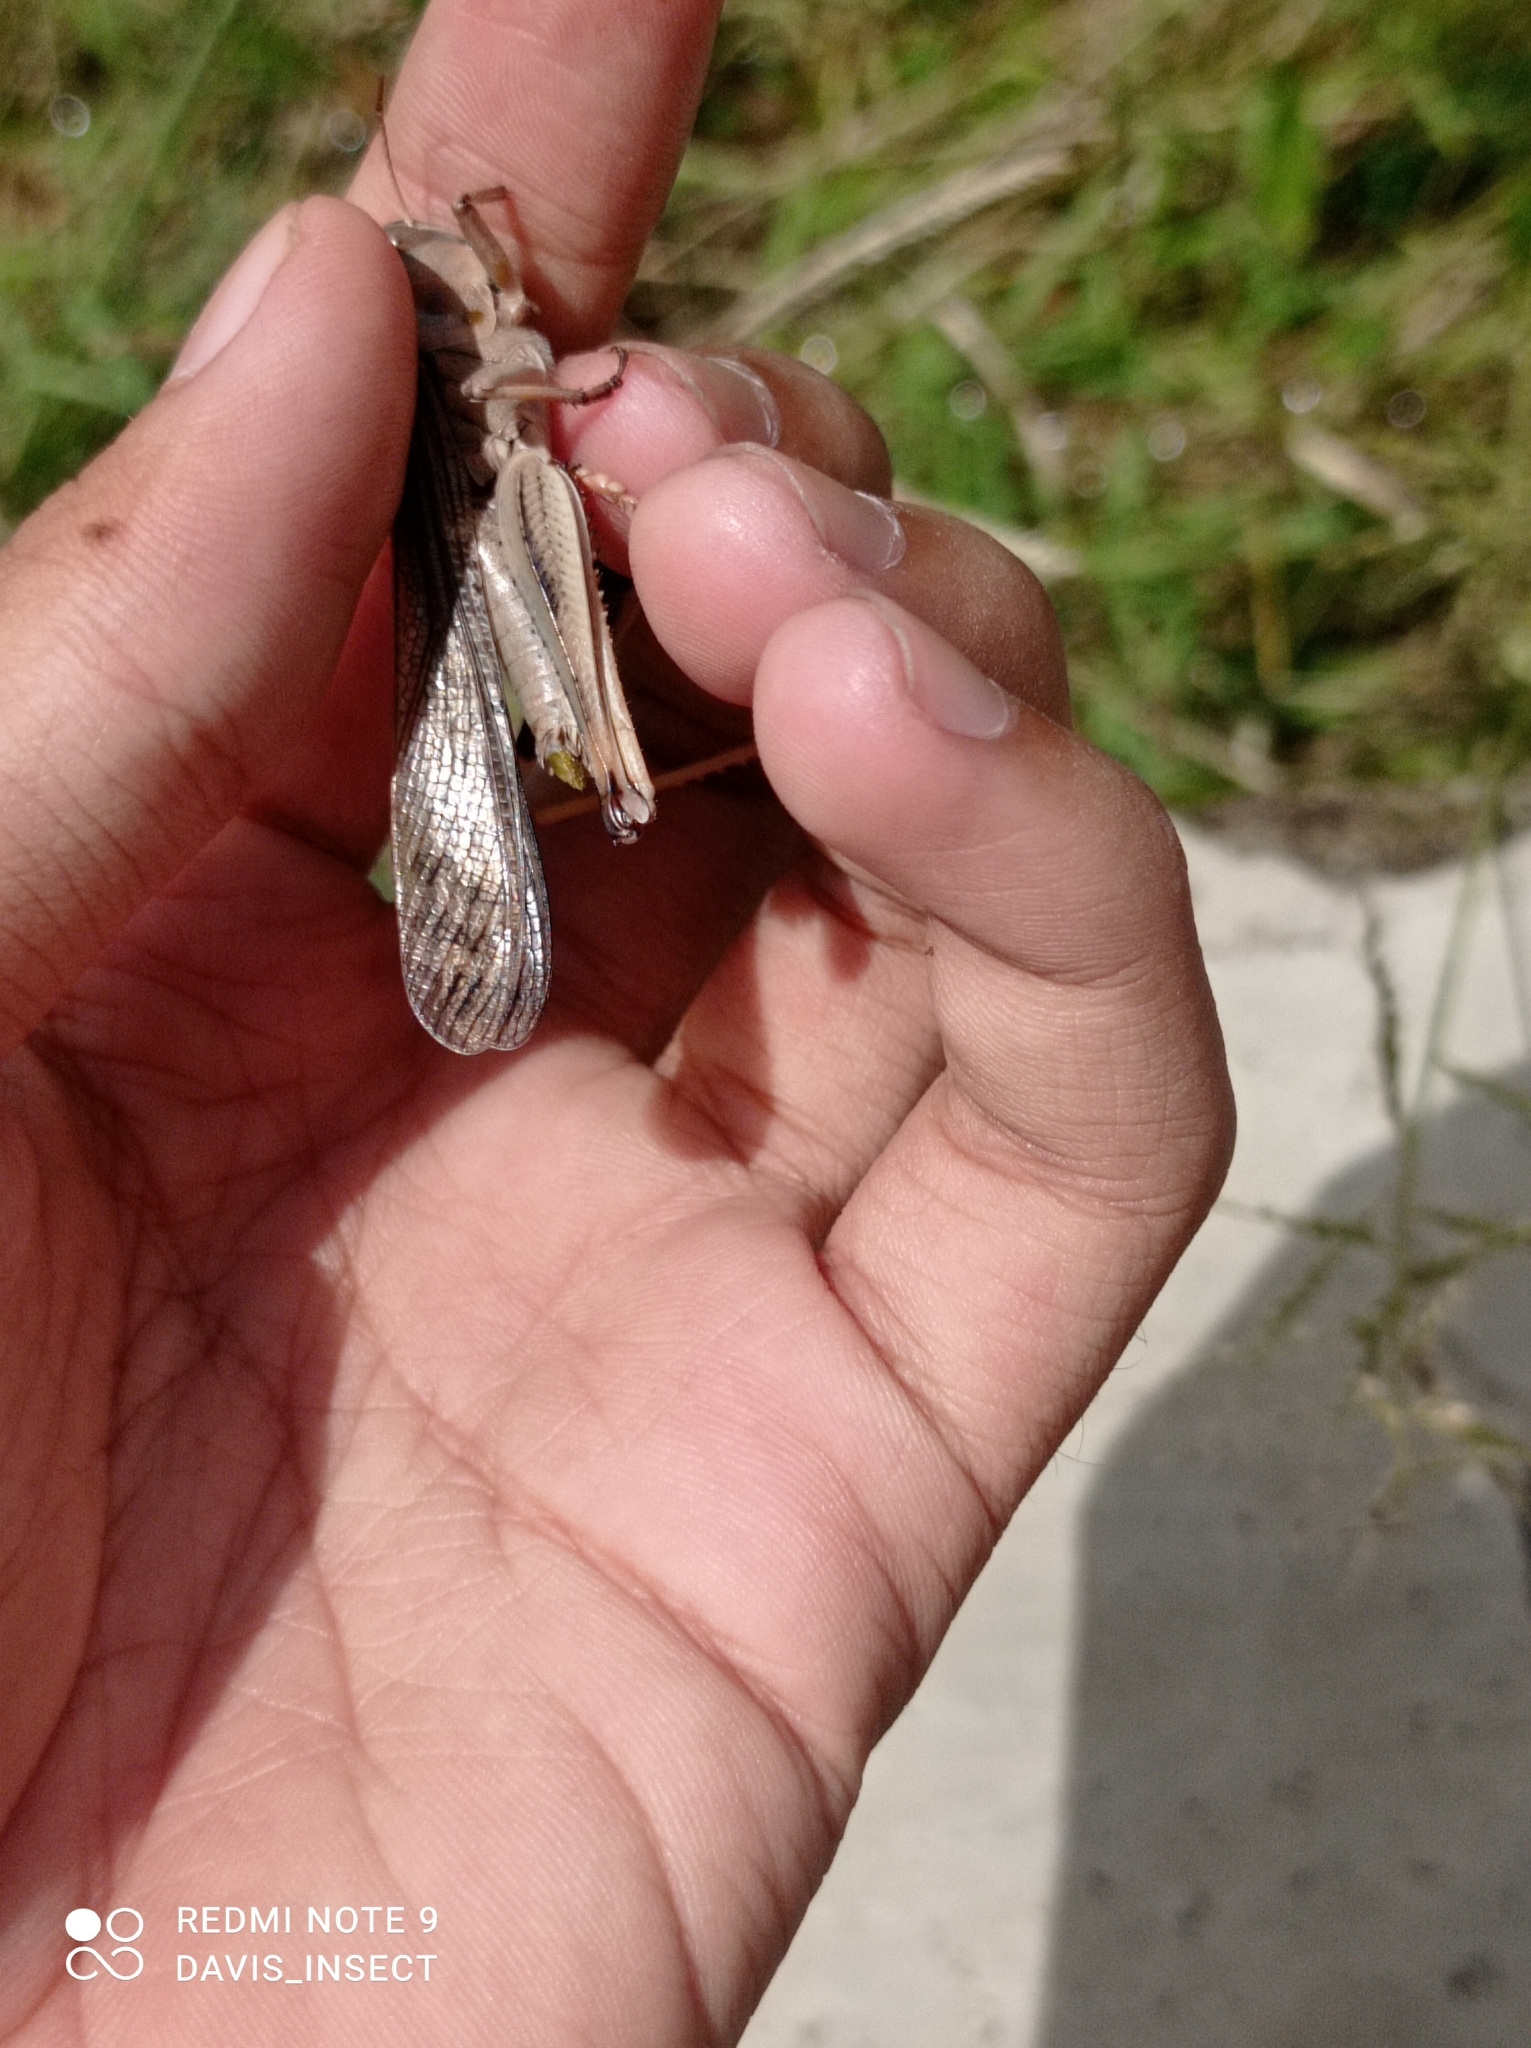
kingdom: Animalia
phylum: Arthropoda
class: Insecta
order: Orthoptera
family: Acrididae
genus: Locusta
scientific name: Locusta migratoria
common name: Migratory locust
